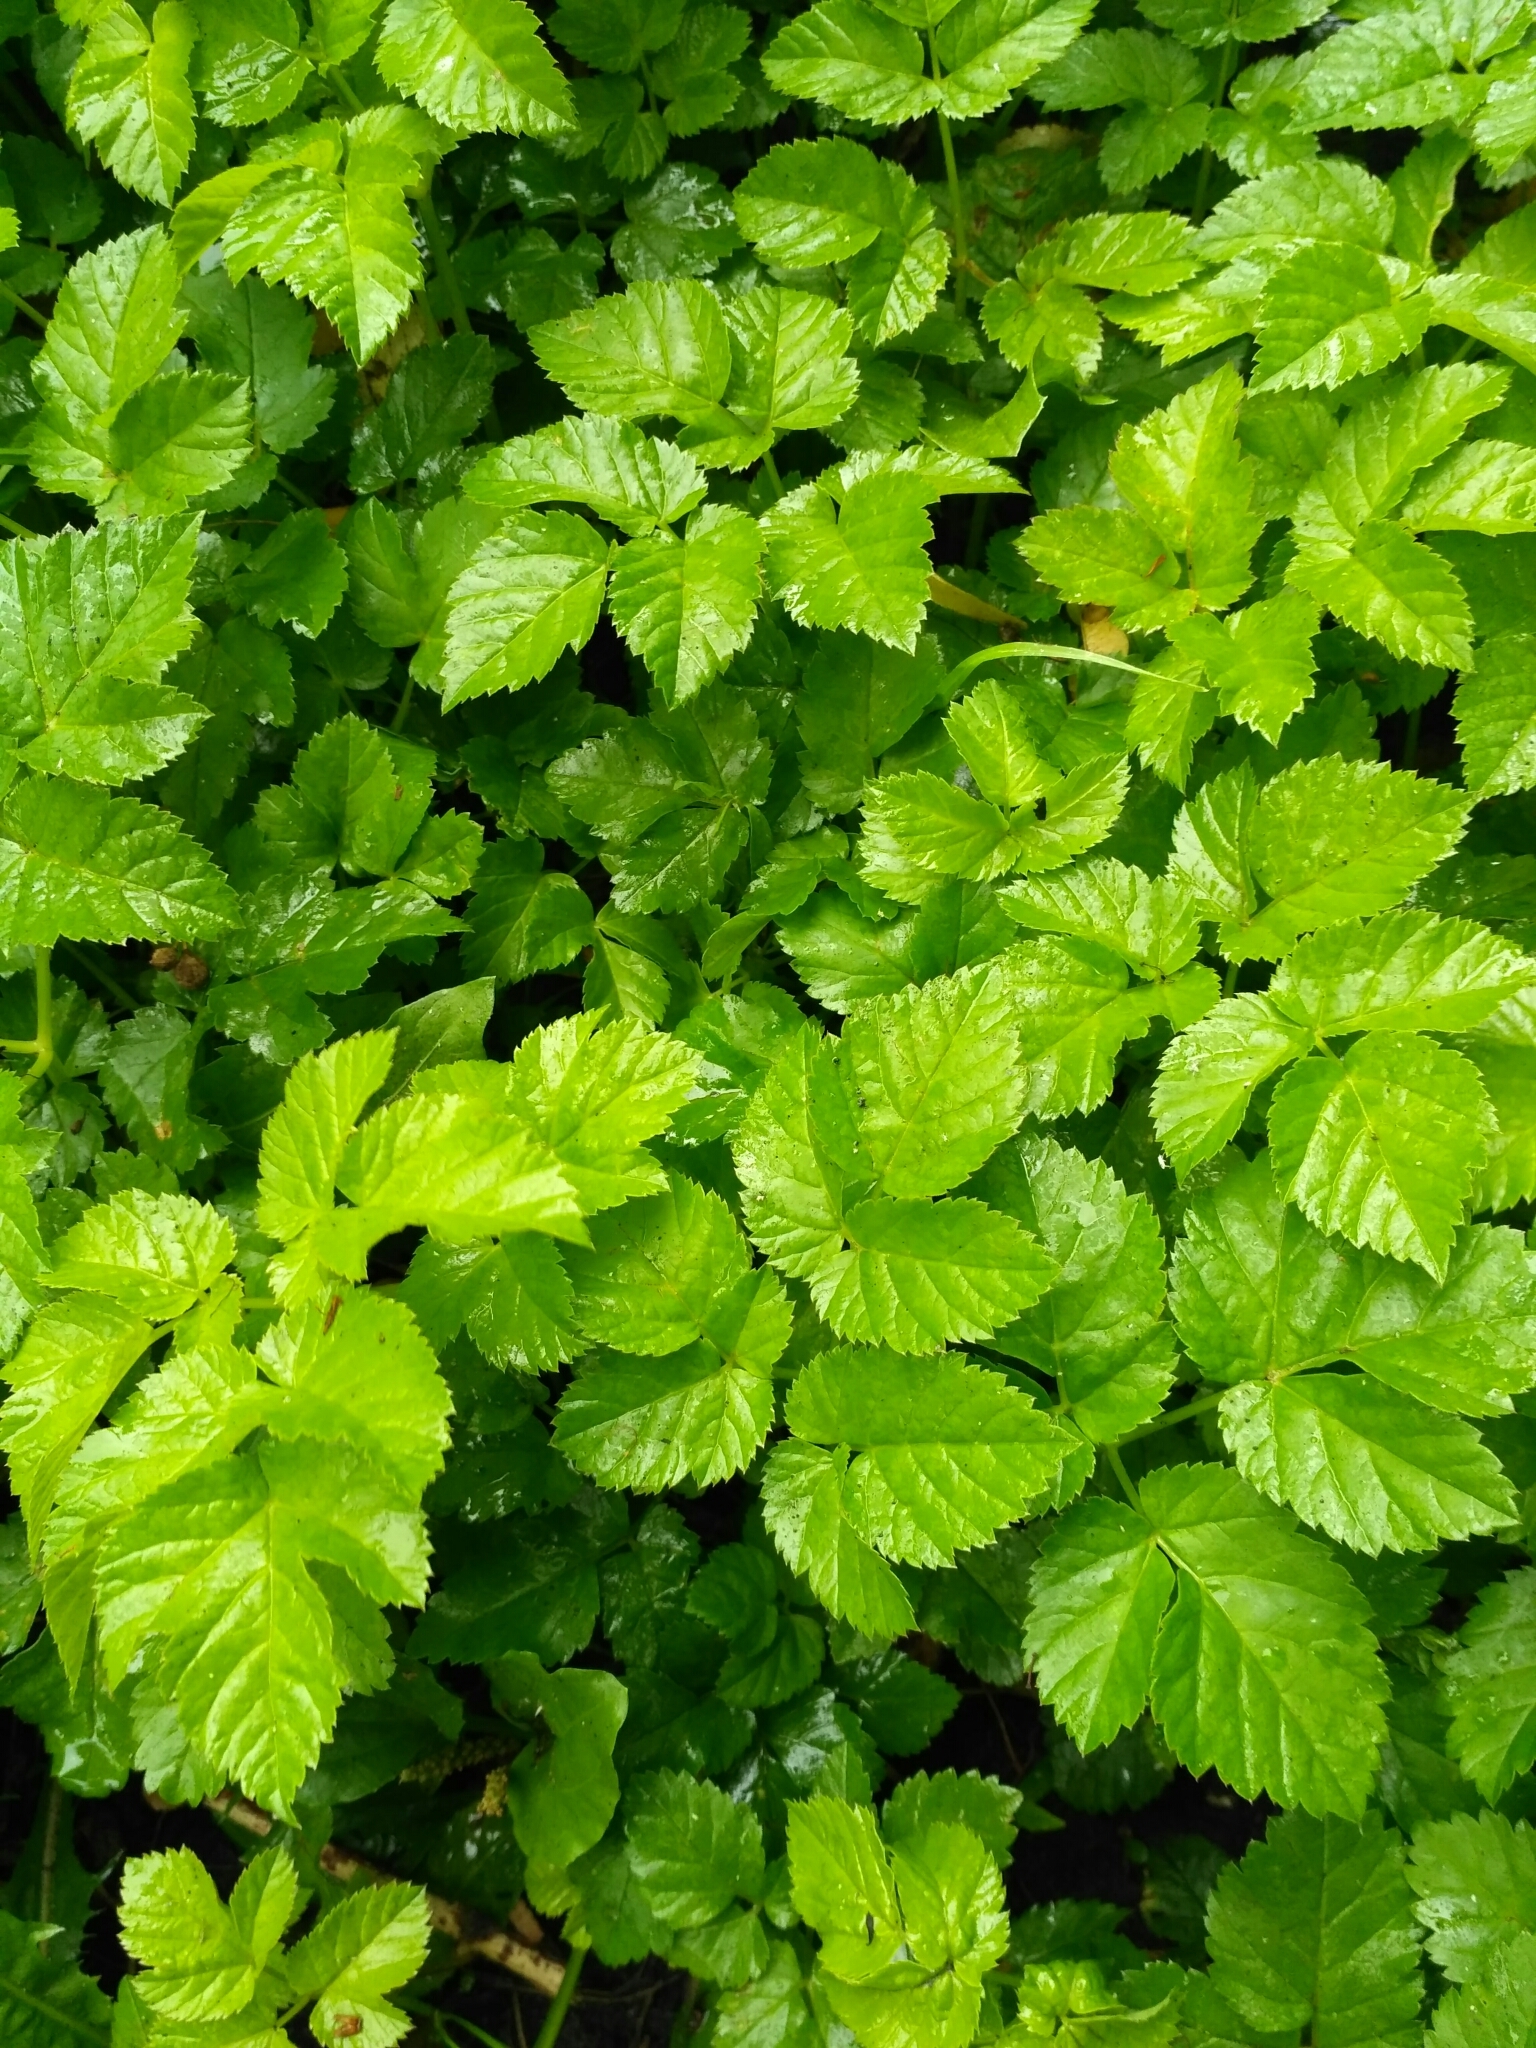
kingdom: Plantae
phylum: Tracheophyta
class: Magnoliopsida
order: Apiales
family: Apiaceae
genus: Aegopodium
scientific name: Aegopodium podagraria
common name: Ground-elder
